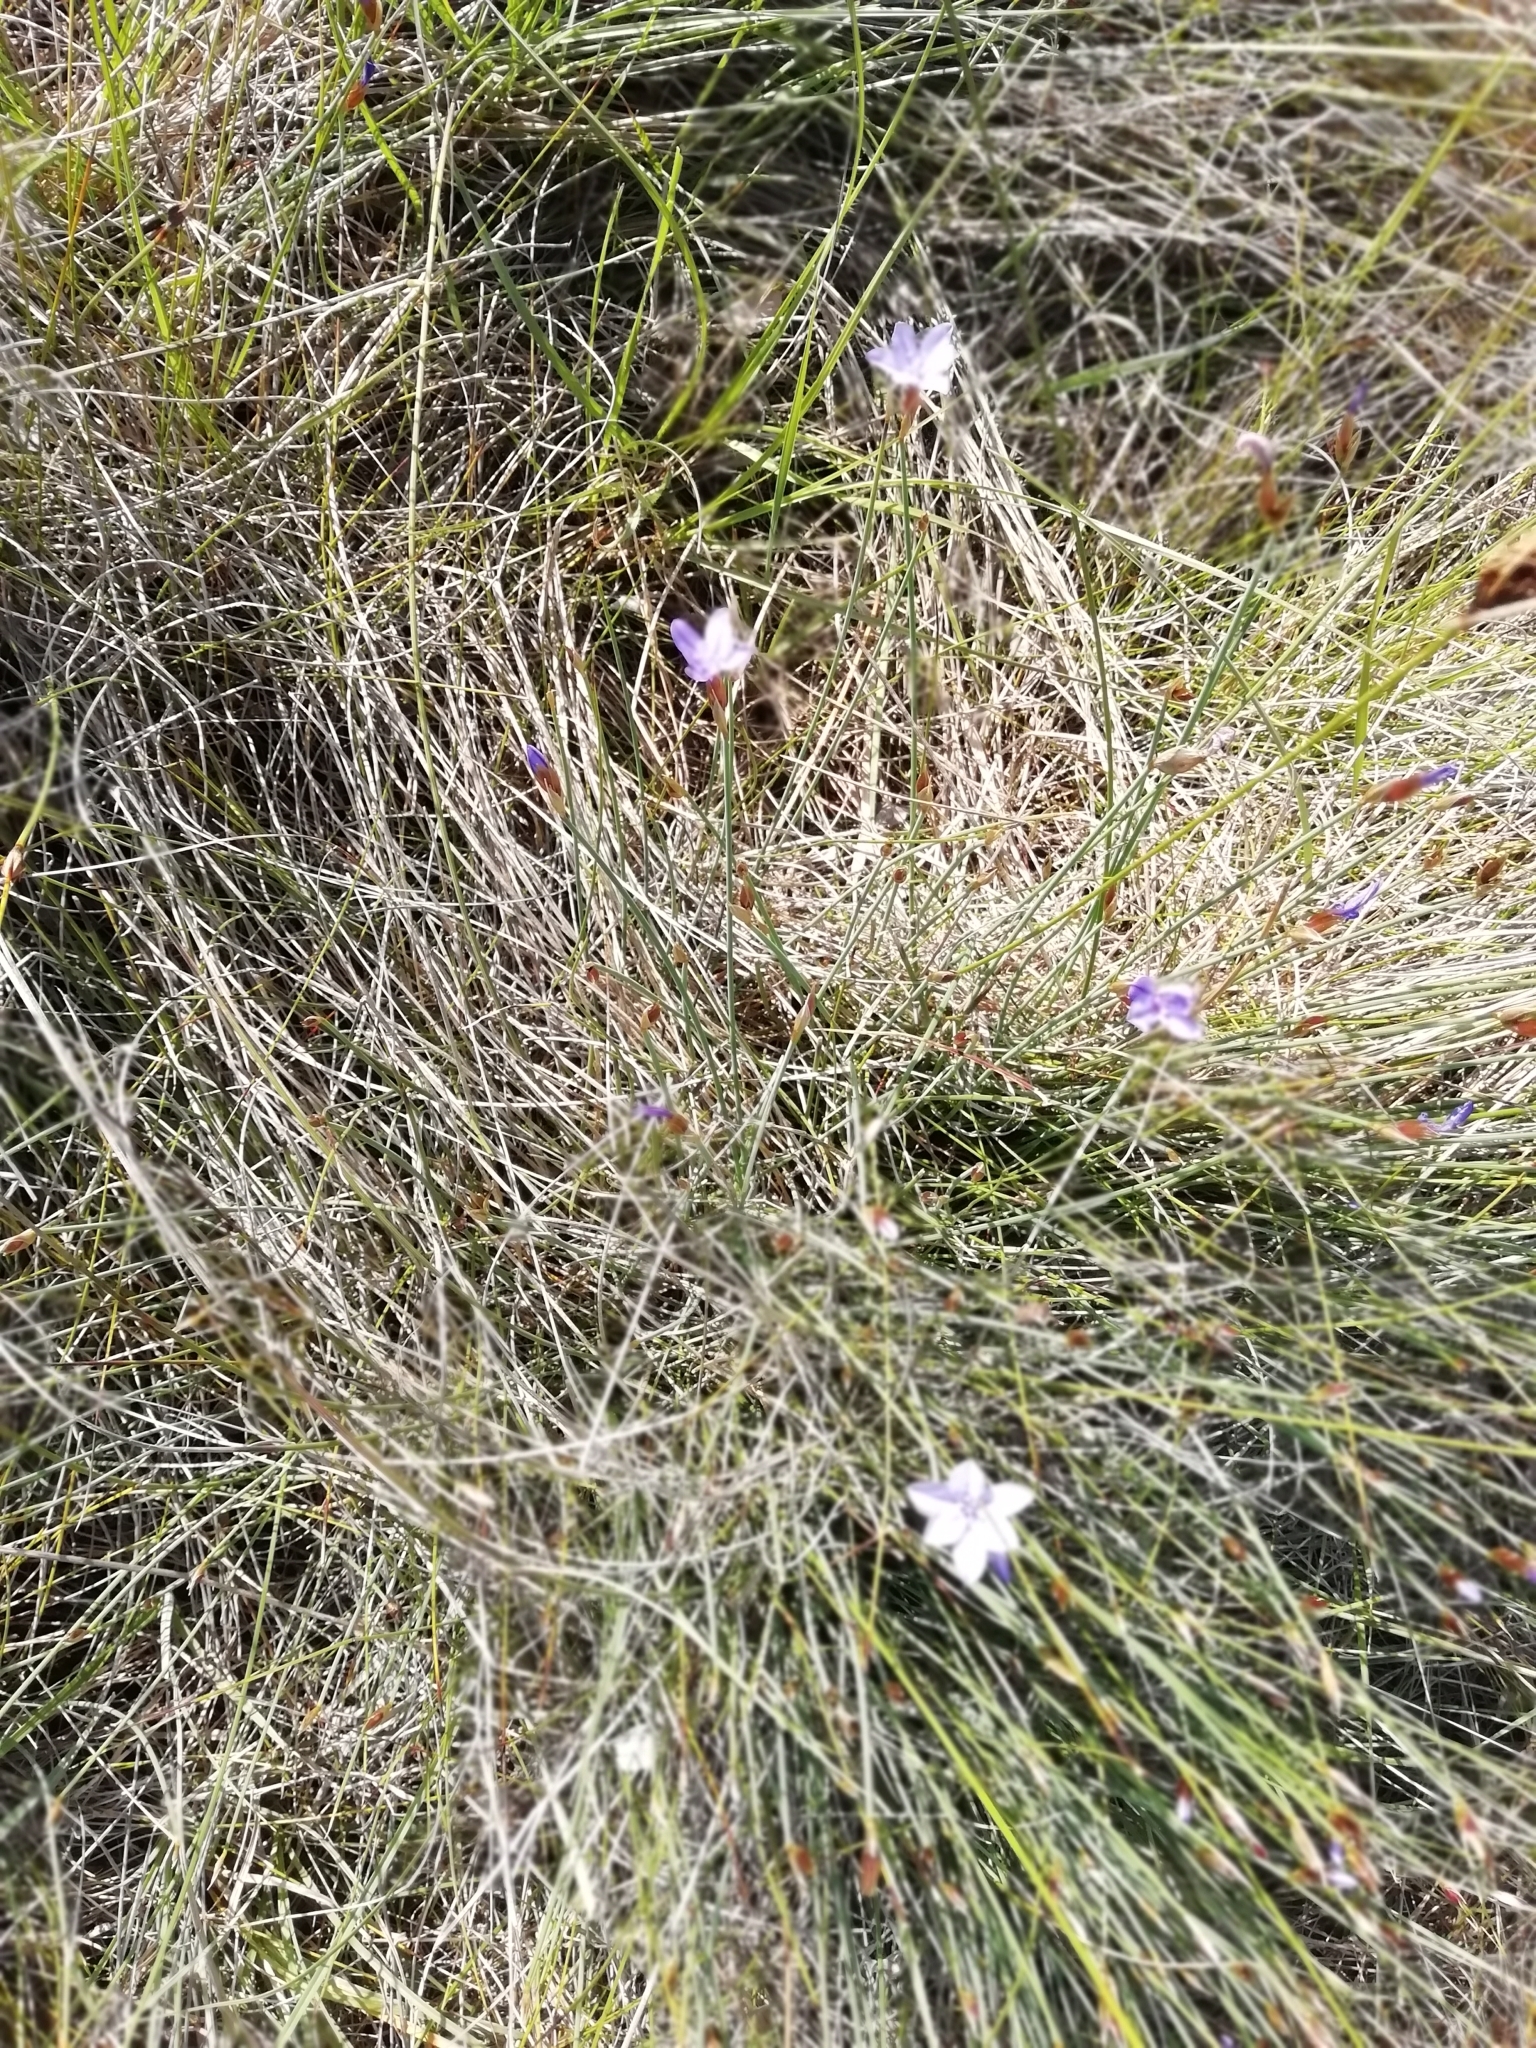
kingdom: Plantae
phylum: Tracheophyta
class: Liliopsida
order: Asparagales
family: Asparagaceae
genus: Aphyllanthes
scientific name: Aphyllanthes monspeliensis
